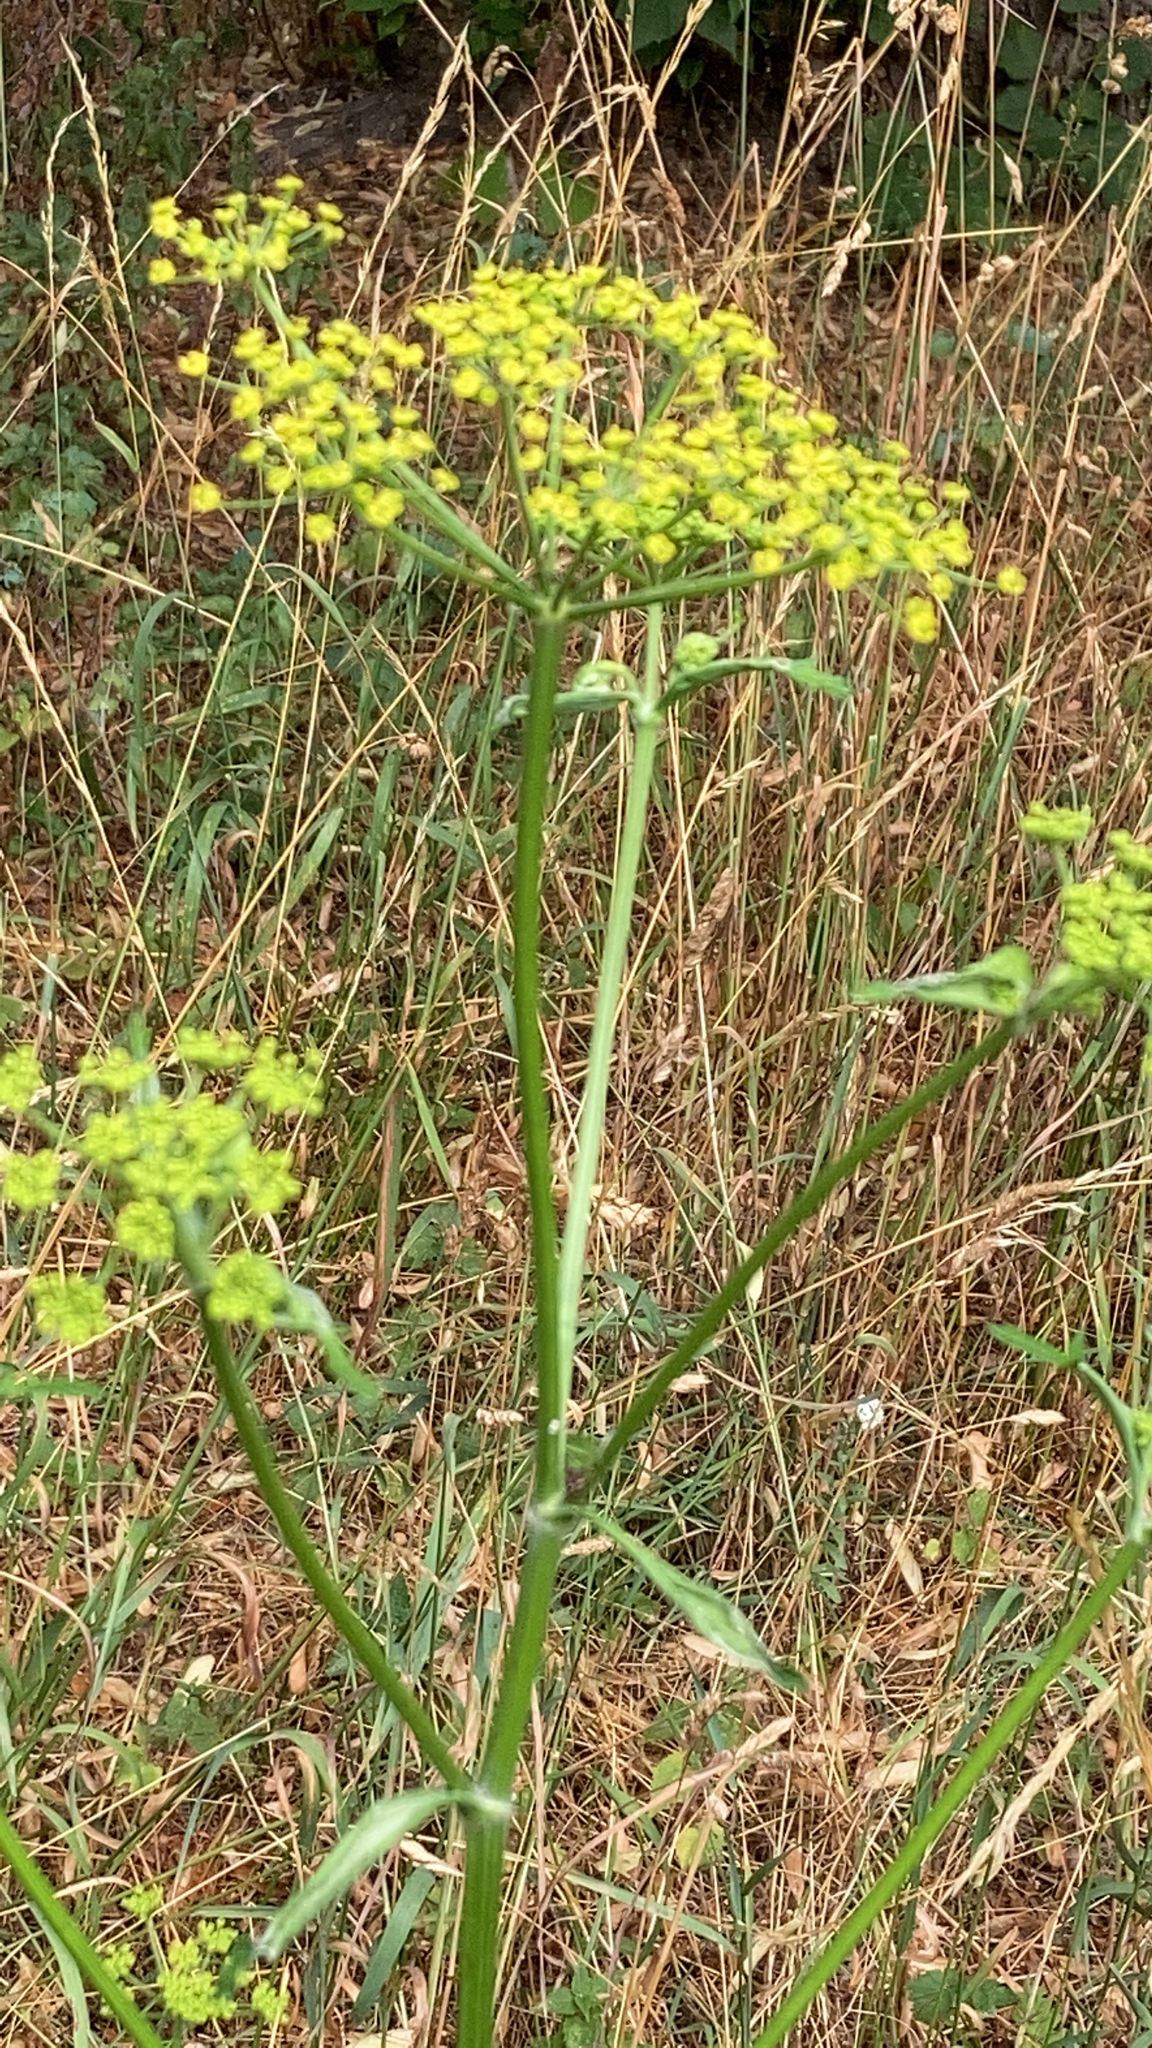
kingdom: Plantae
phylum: Tracheophyta
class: Magnoliopsida
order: Apiales
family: Apiaceae
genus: Pastinaca
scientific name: Pastinaca sativa
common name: Wild parsnip
